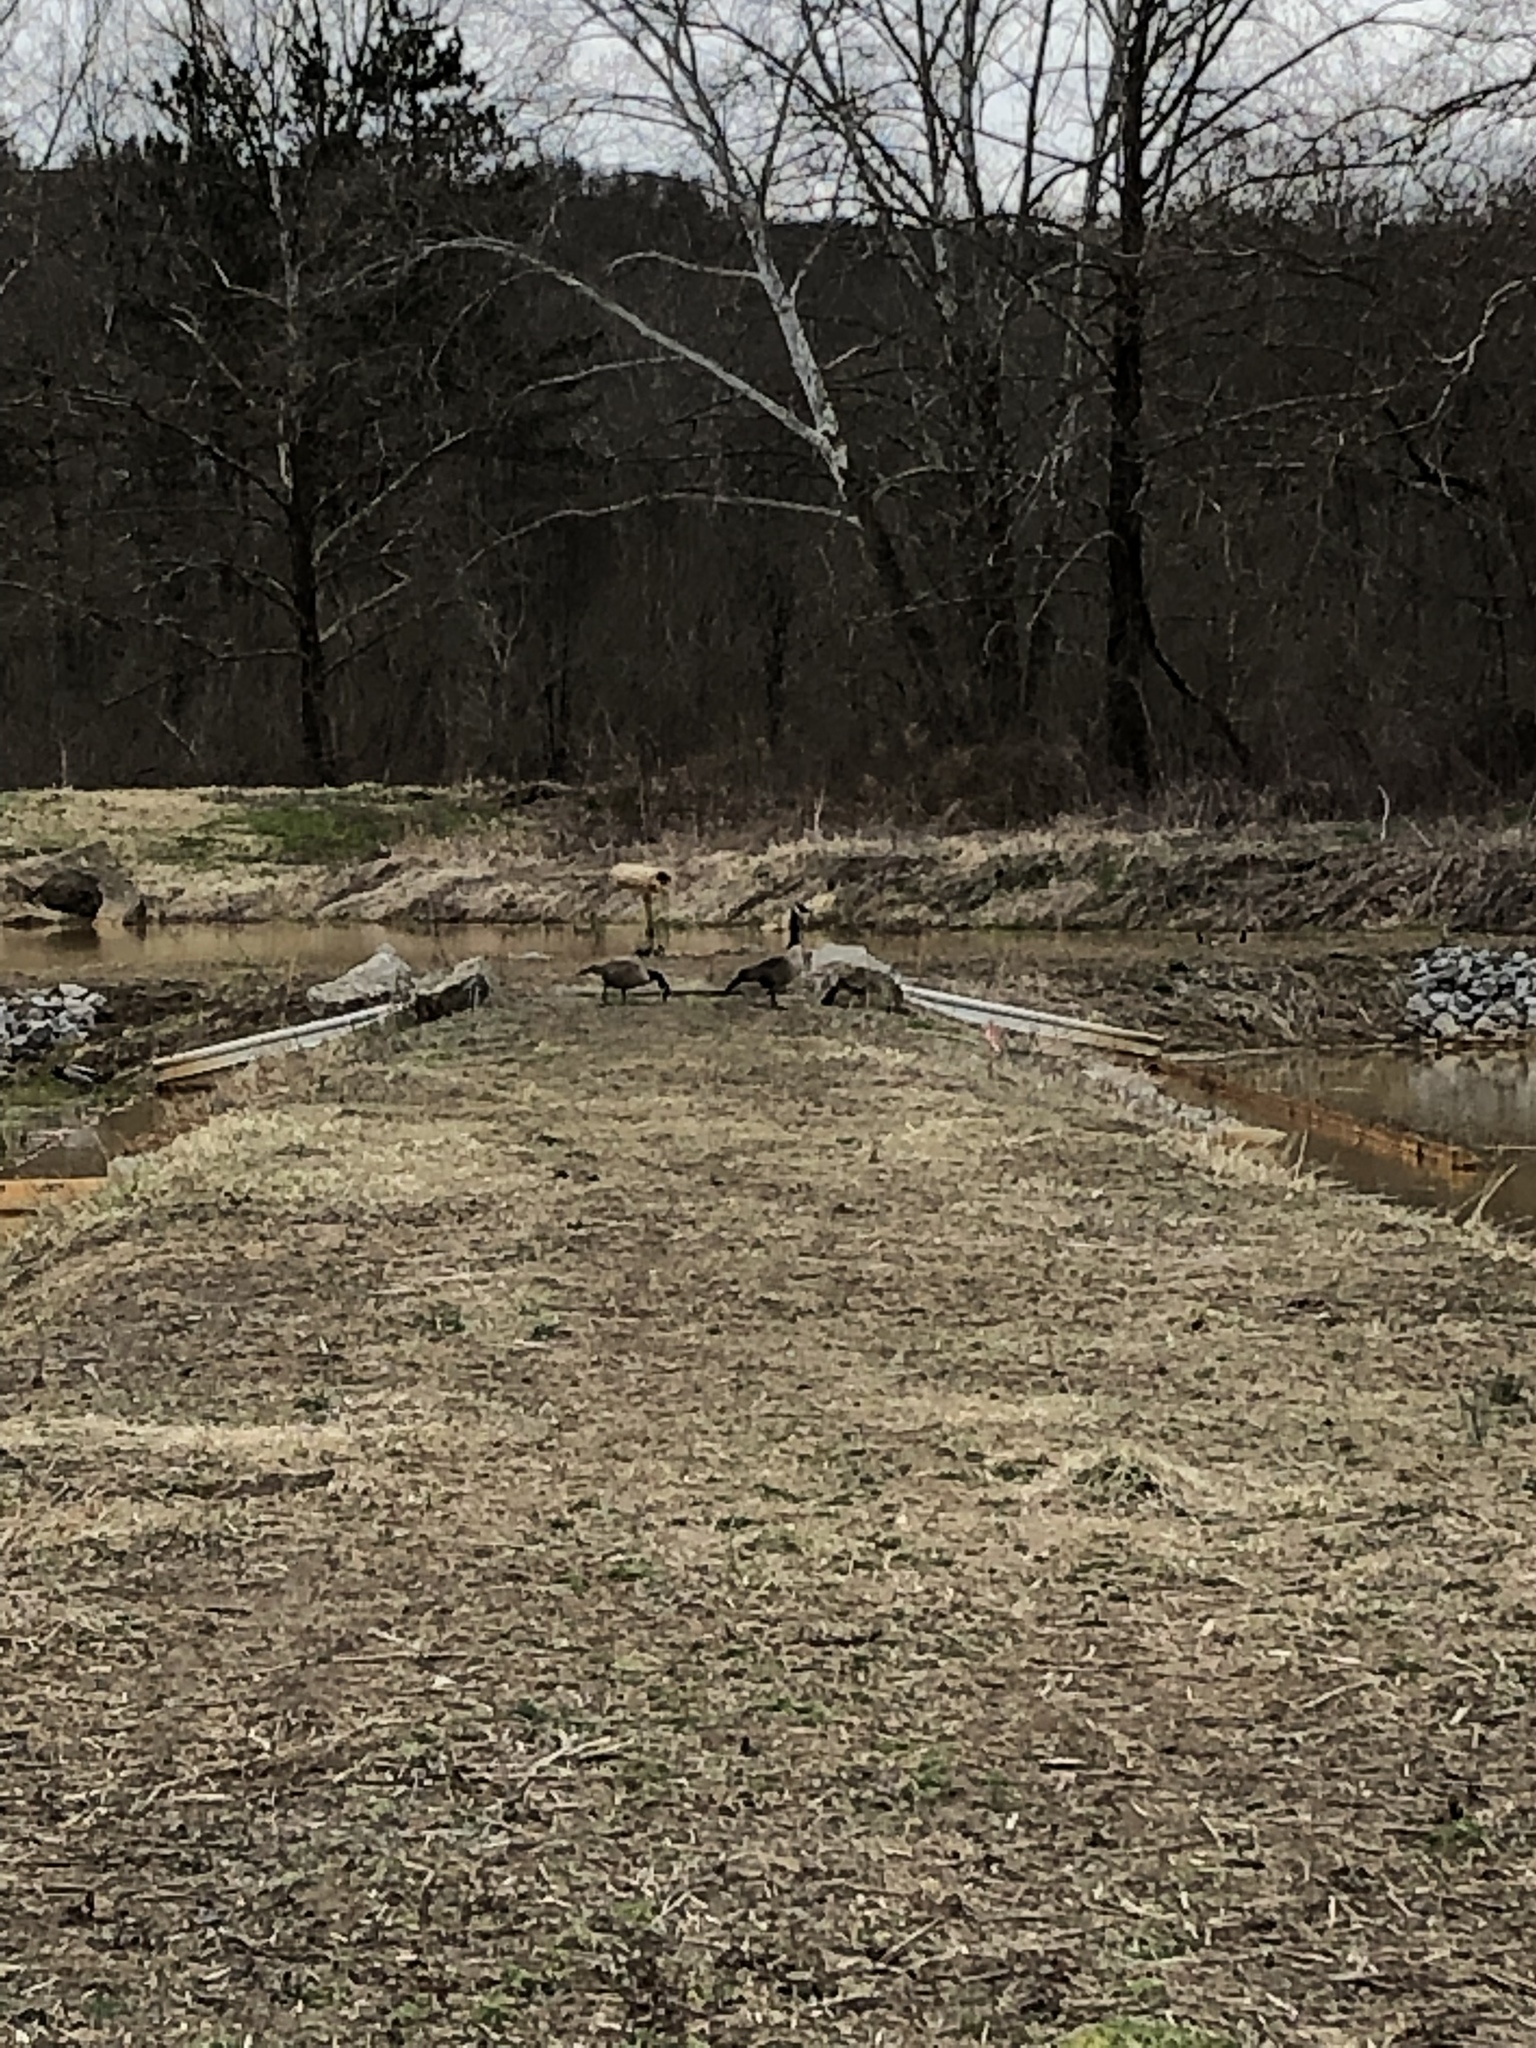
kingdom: Animalia
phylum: Chordata
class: Aves
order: Anseriformes
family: Anatidae
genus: Branta
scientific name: Branta canadensis
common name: Canada goose
